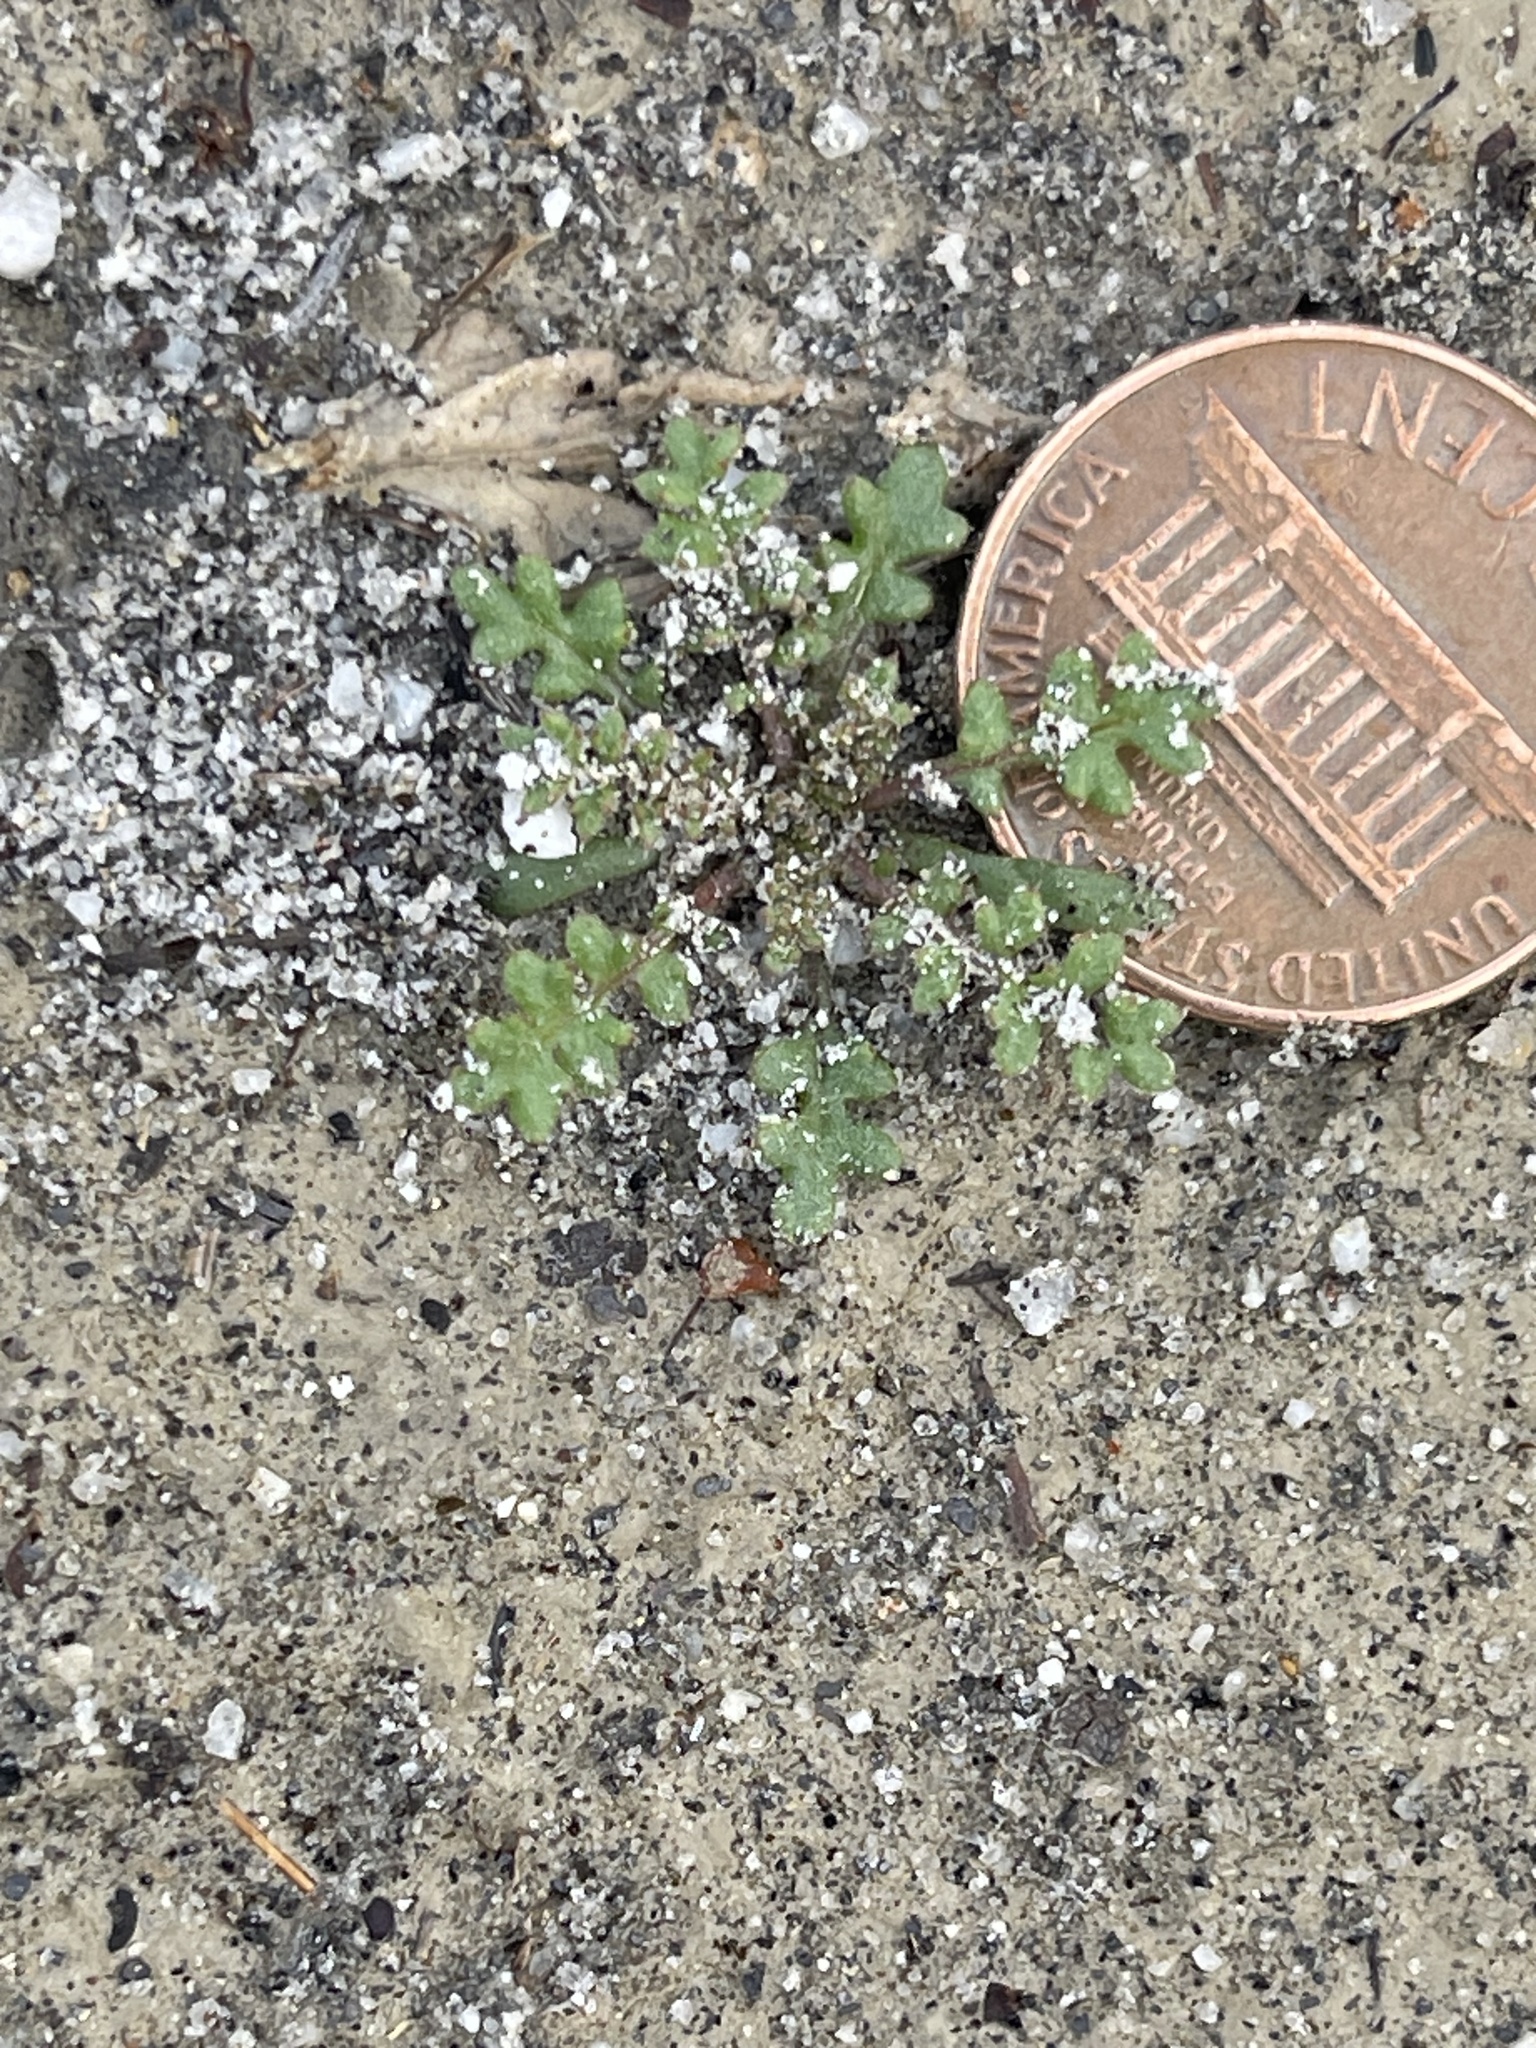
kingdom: Plantae
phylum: Tracheophyta
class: Magnoliopsida
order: Brassicales
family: Brassicaceae
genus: Lepidium
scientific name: Lepidium lasiocarpum
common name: Hairy-pod pepperwort
